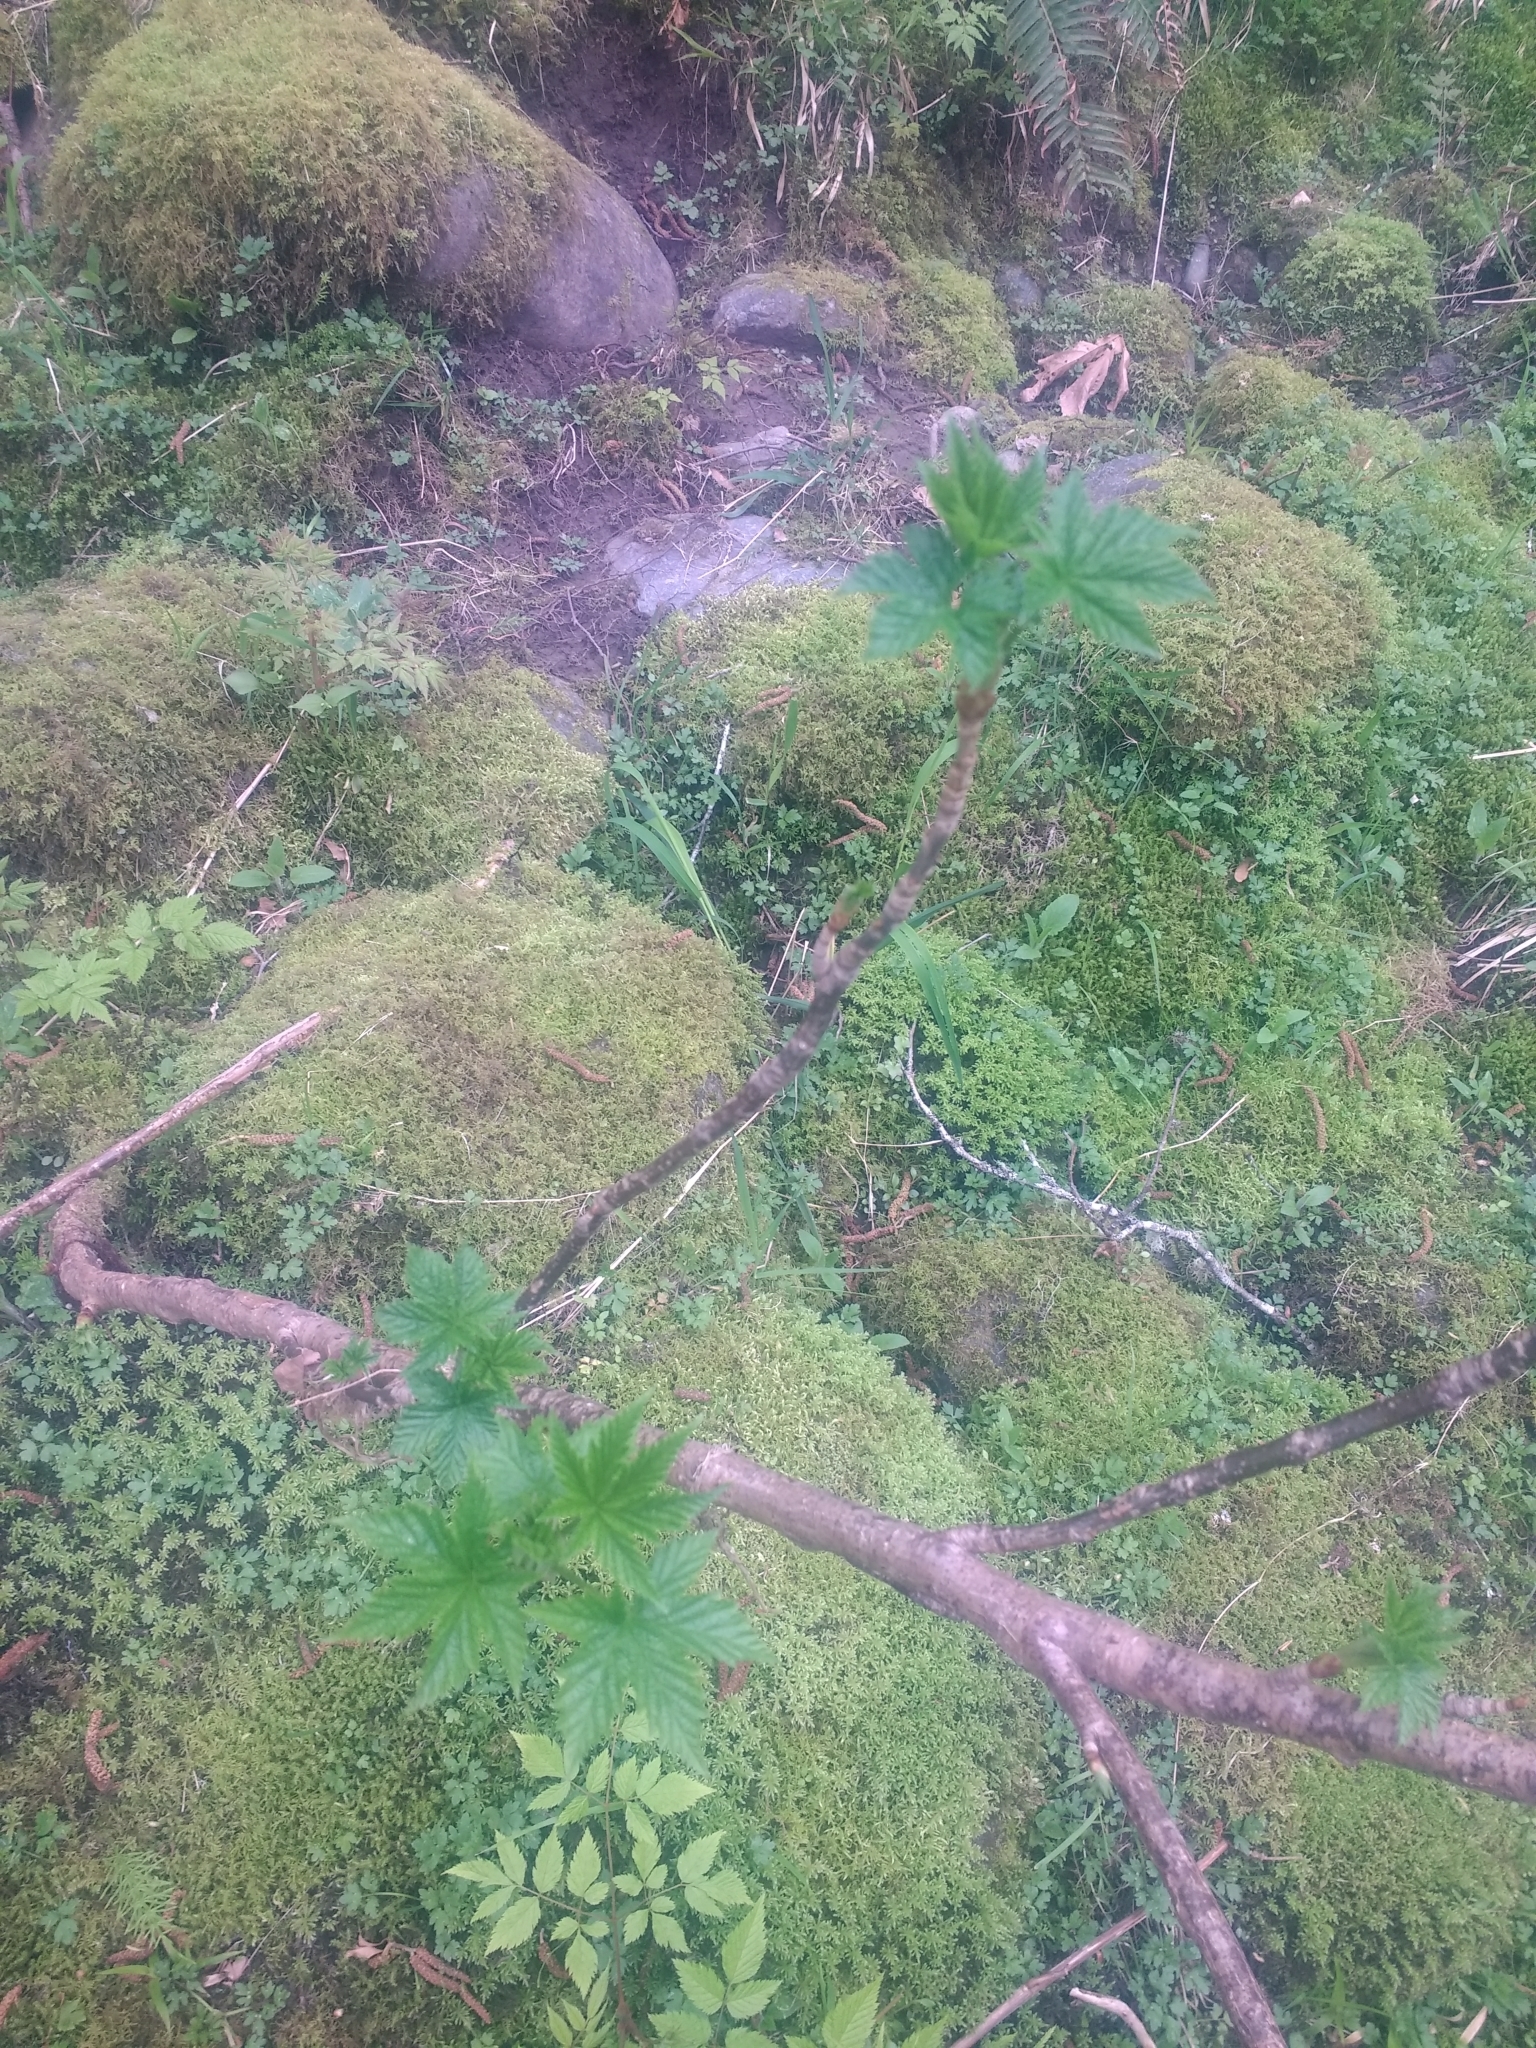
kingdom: Plantae
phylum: Tracheophyta
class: Magnoliopsida
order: Saxifragales
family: Grossulariaceae
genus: Ribes
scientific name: Ribes bracteosum
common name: California black currant
